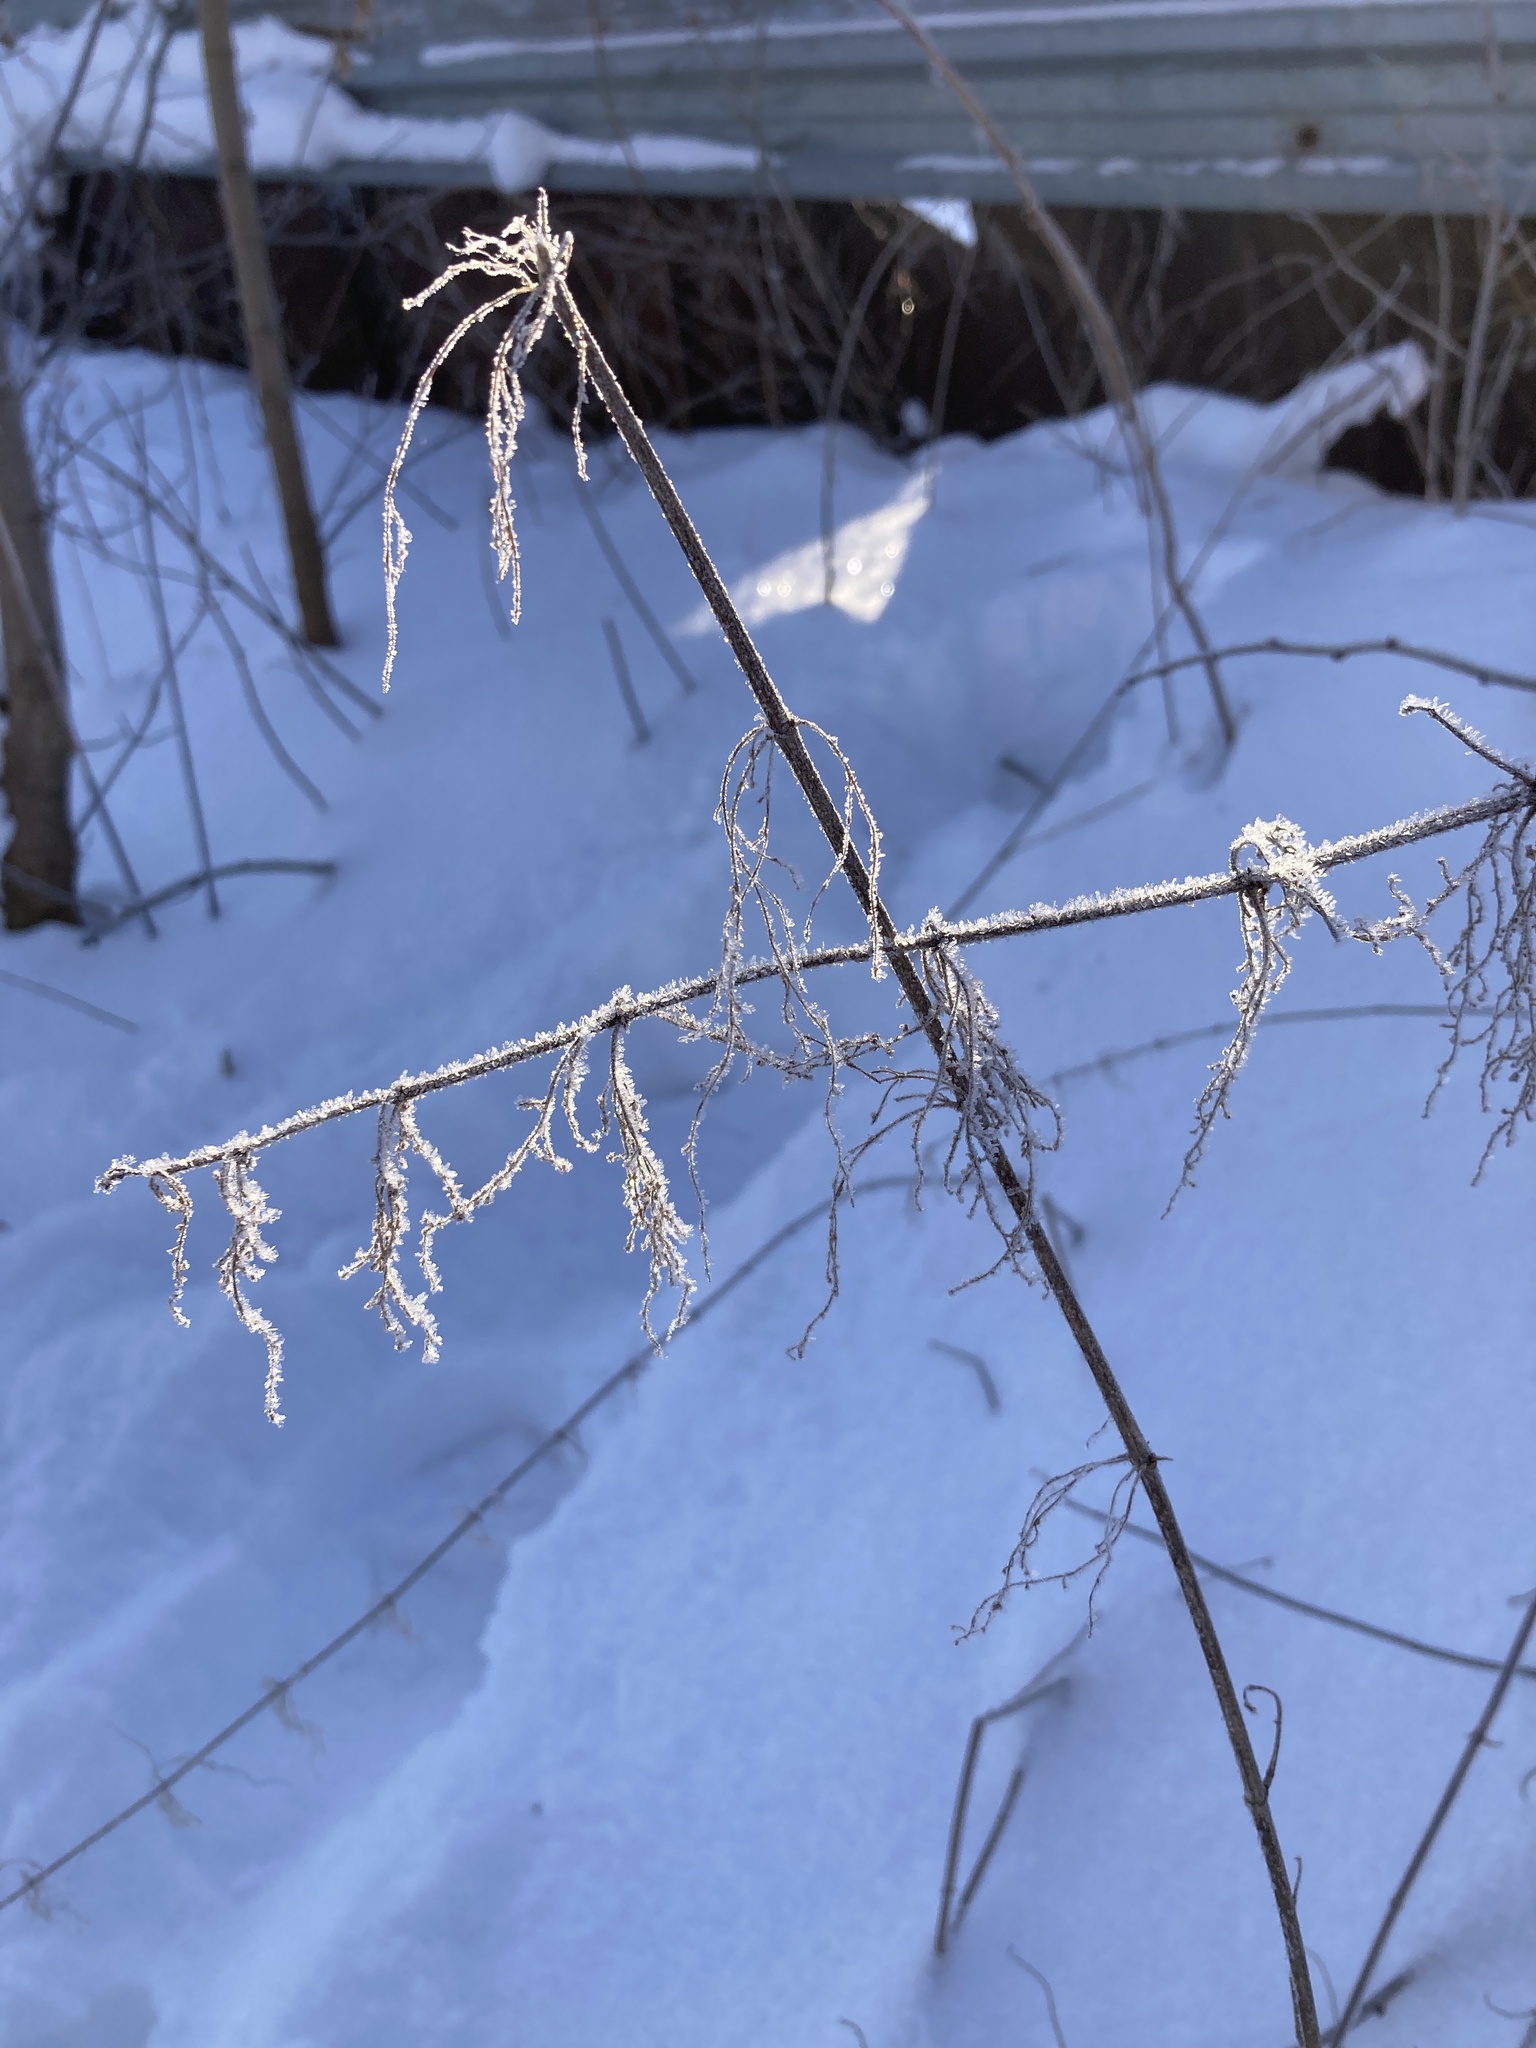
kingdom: Plantae
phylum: Tracheophyta
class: Magnoliopsida
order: Rosales
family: Urticaceae
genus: Urtica
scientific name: Urtica dioica
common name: Common nettle
